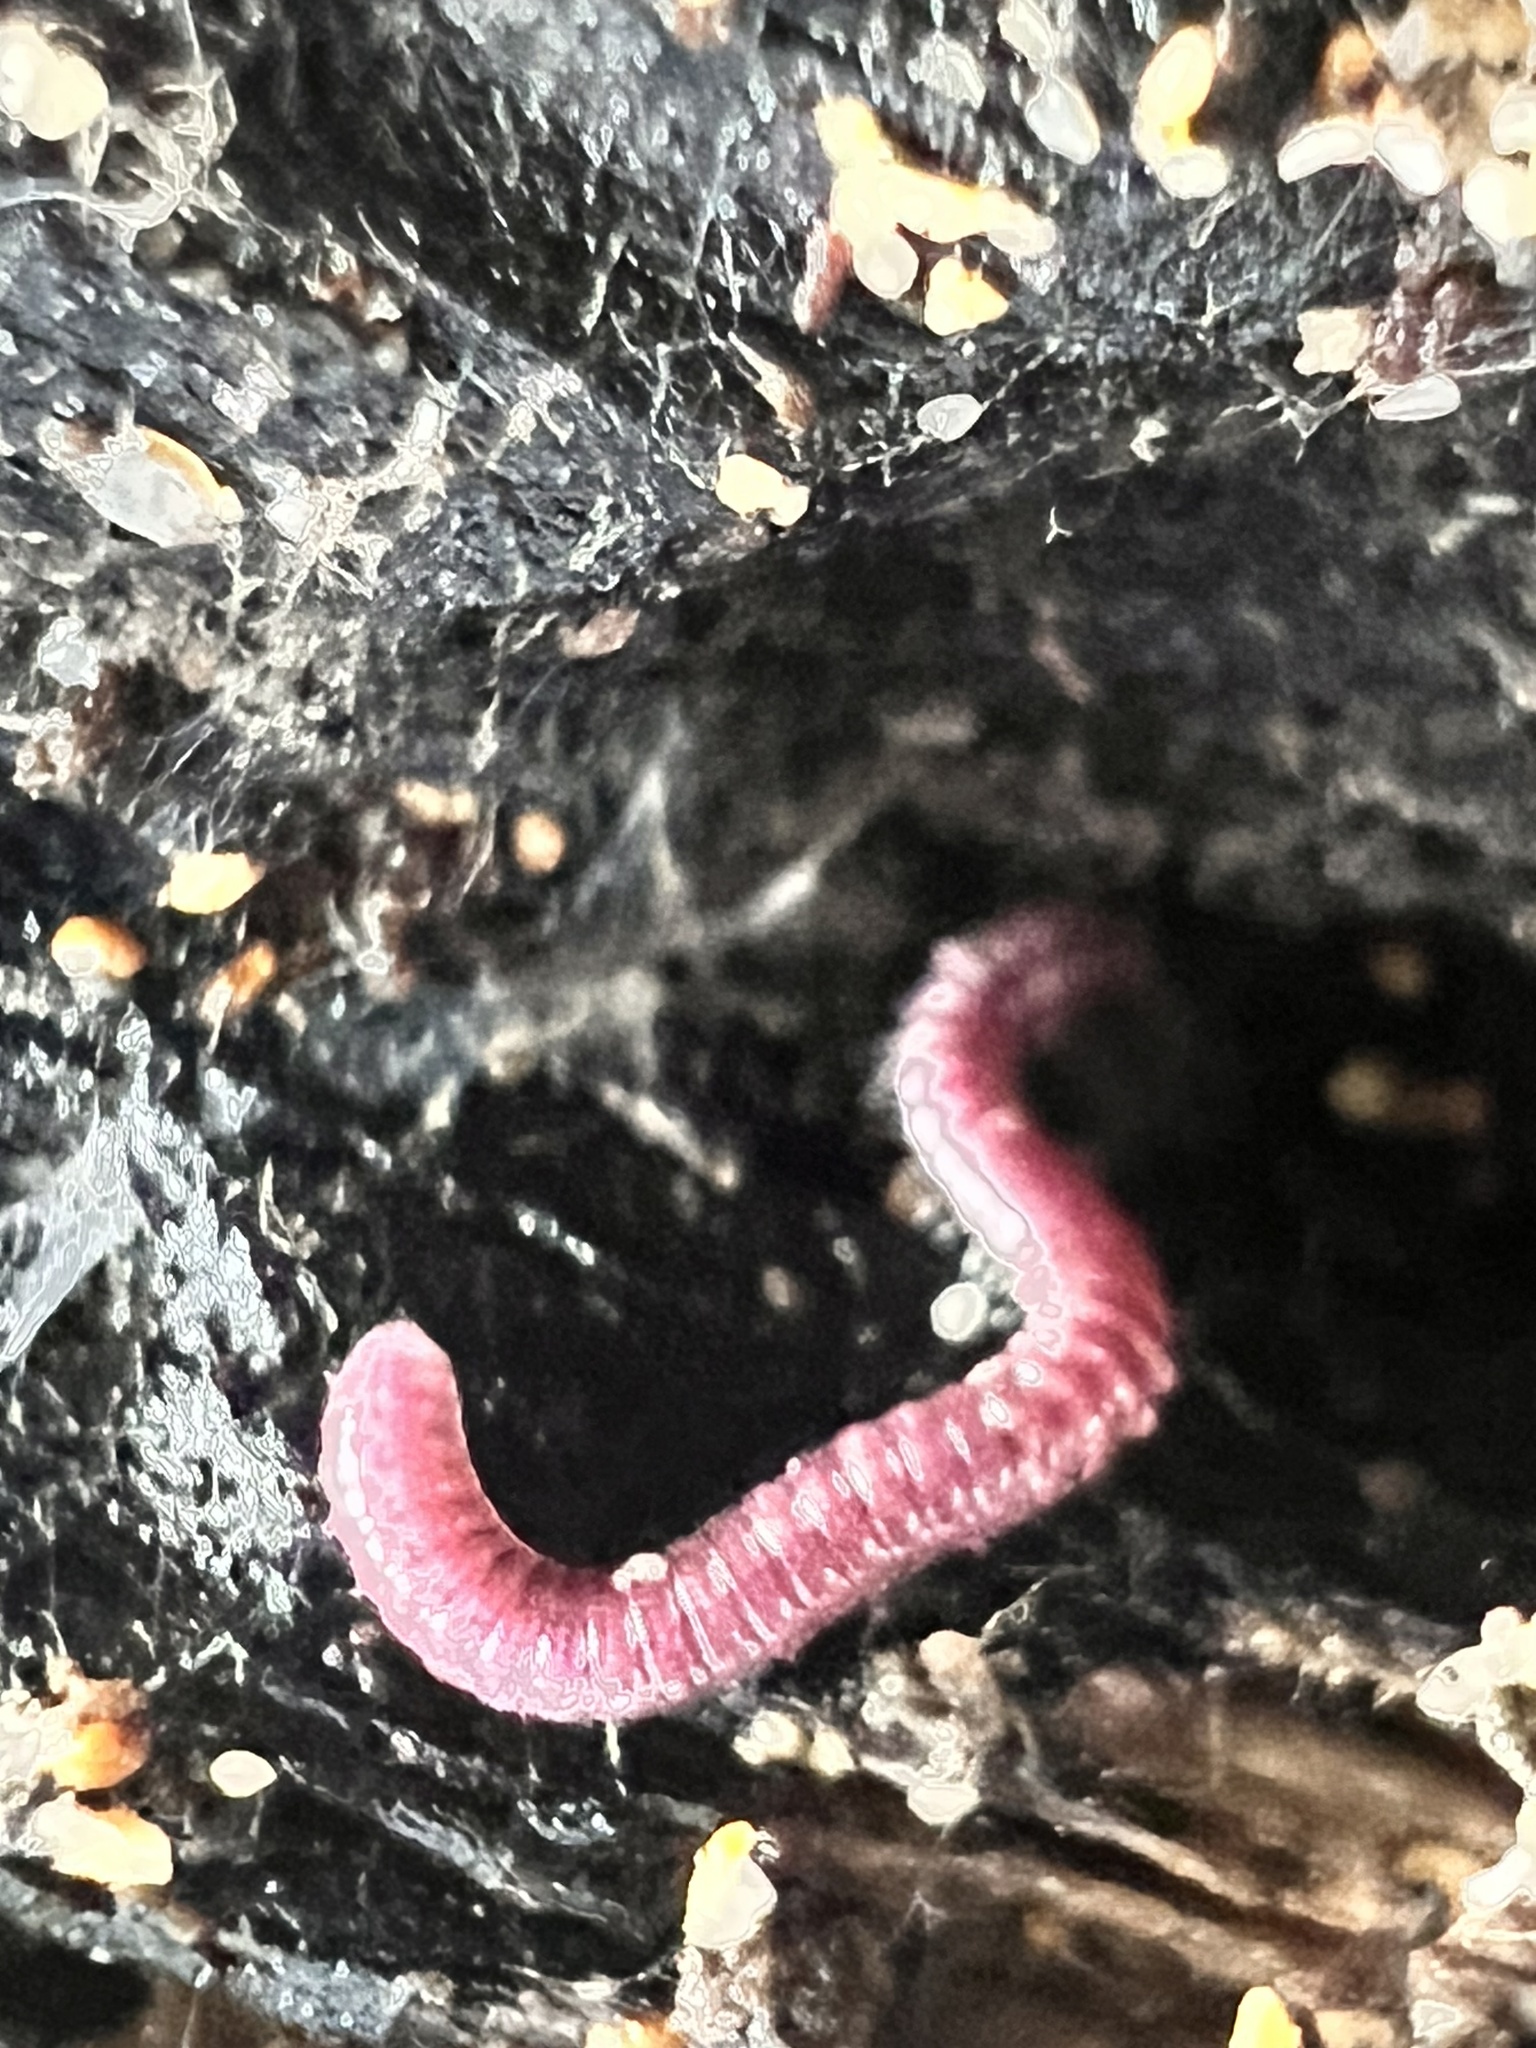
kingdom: Animalia
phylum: Arthropoda
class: Diplopoda
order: Polyzoniida
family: Siphonotidae
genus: Rhinotus
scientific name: Rhinotus purpureus
